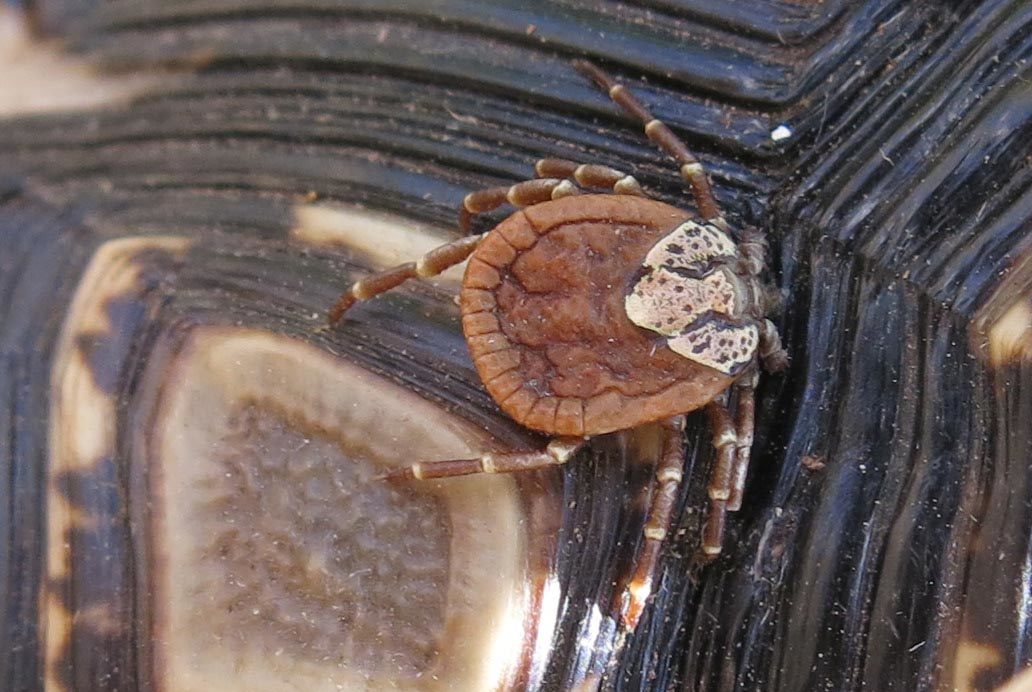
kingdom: Animalia
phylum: Arthropoda
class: Arachnida
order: Ixodida
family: Ixodidae
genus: Amblyomma
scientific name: Amblyomma marmoreum
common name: South african tortoise tick
